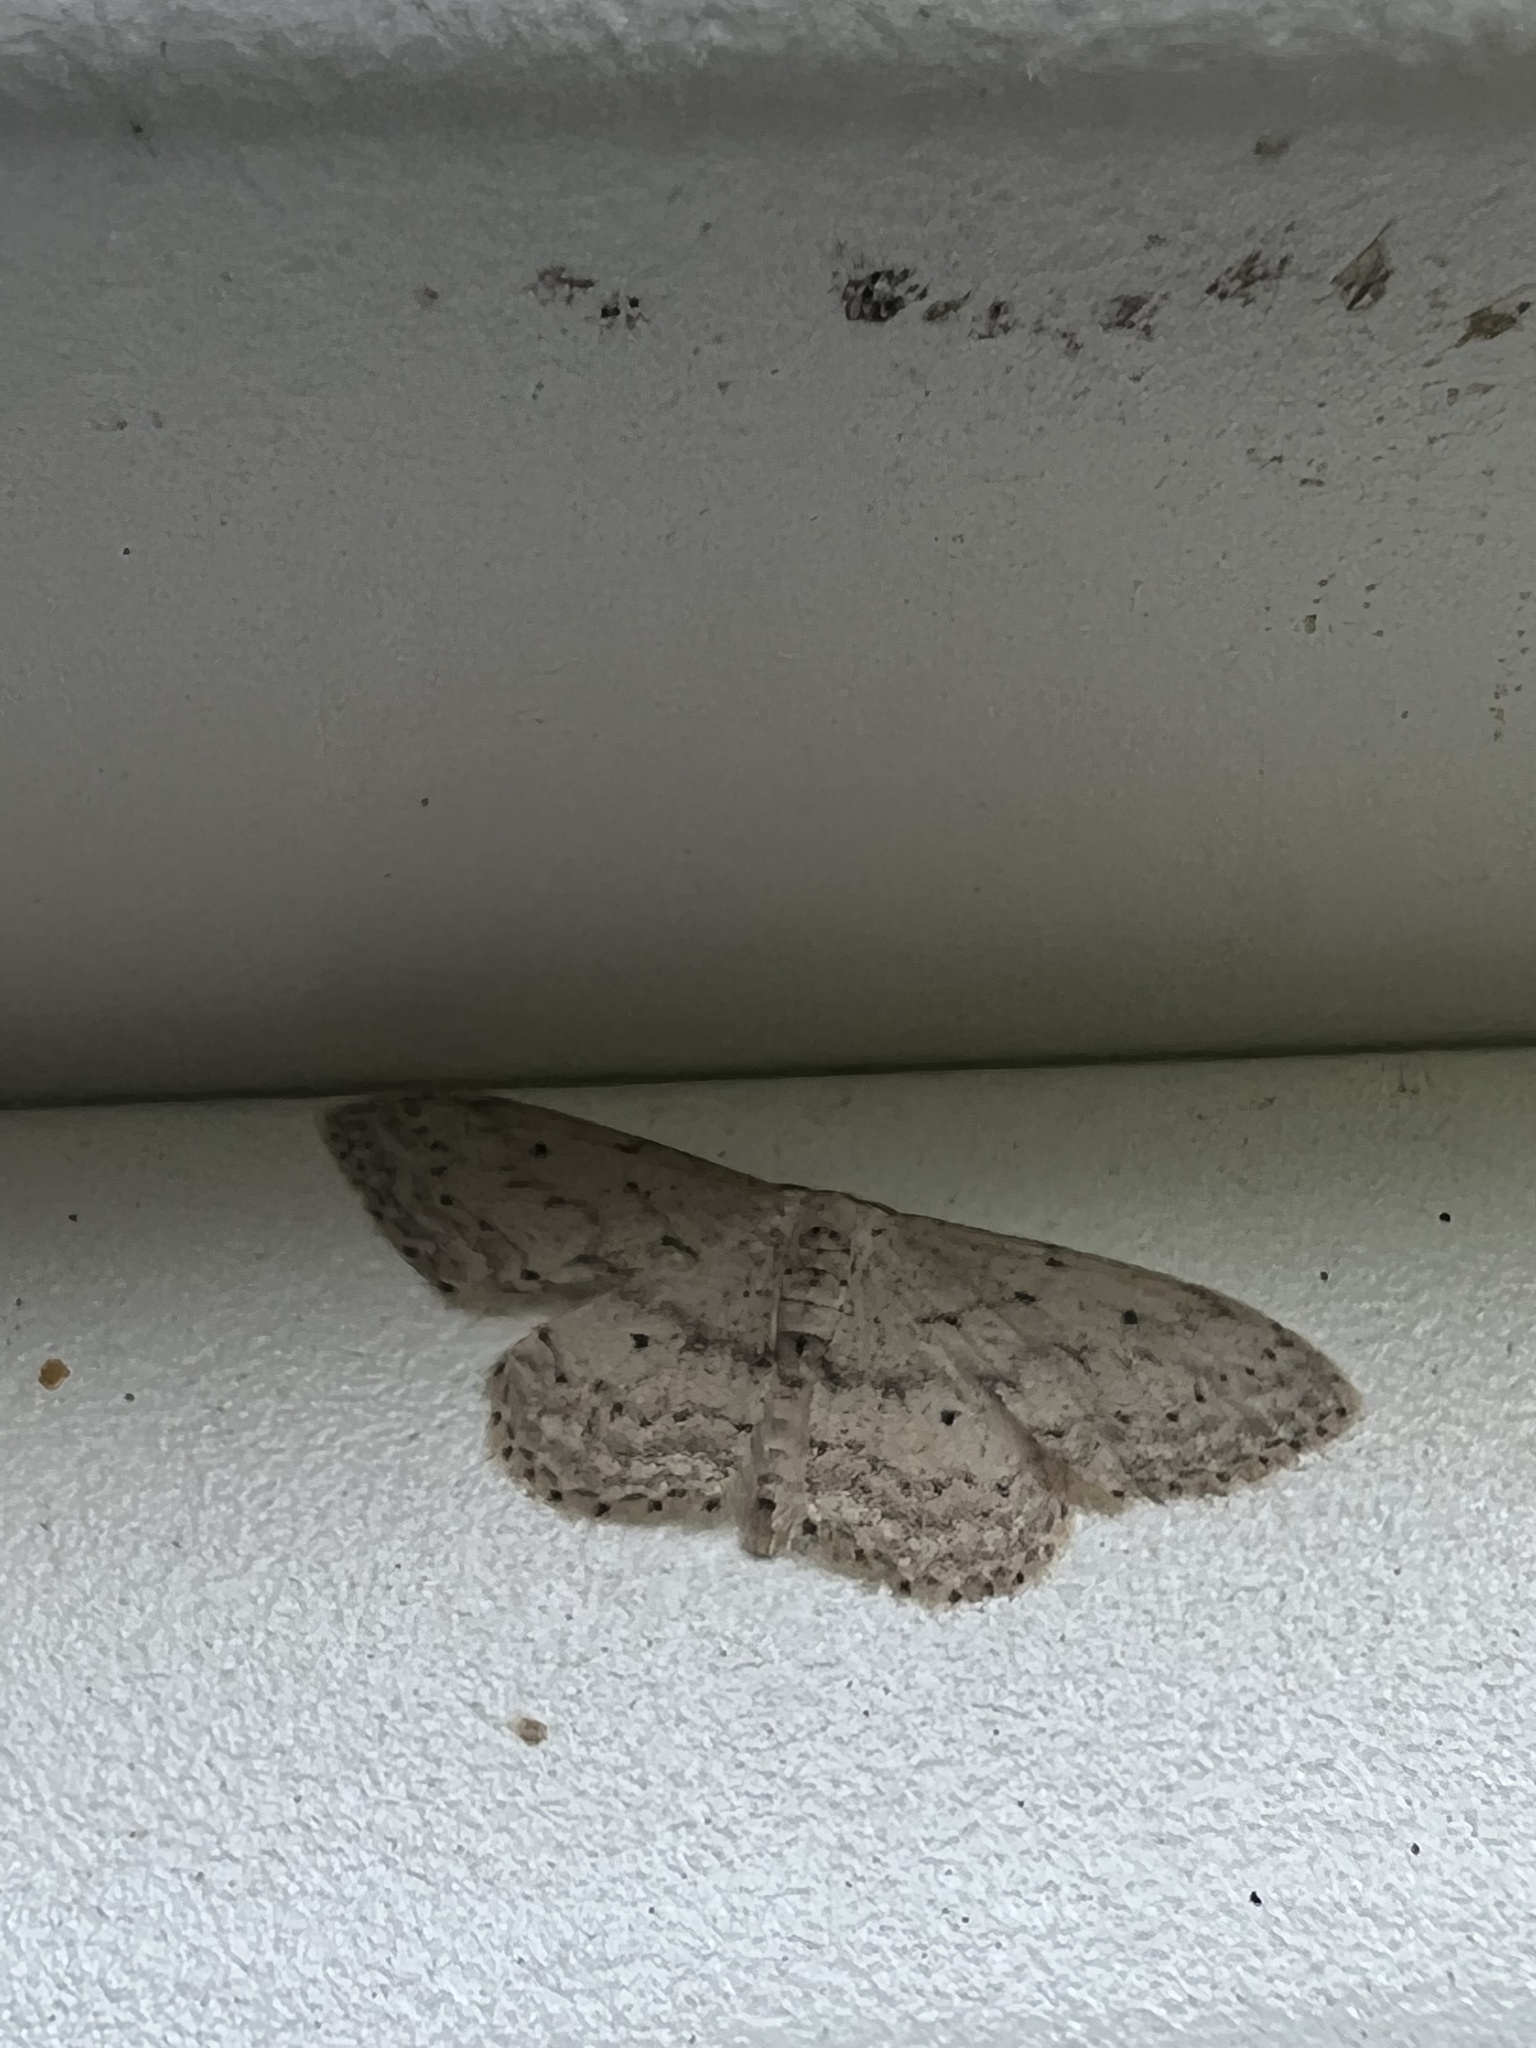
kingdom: Animalia
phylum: Arthropoda
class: Insecta
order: Lepidoptera
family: Geometridae
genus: Idaea
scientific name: Idaea seriata
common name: Small dusty wave
